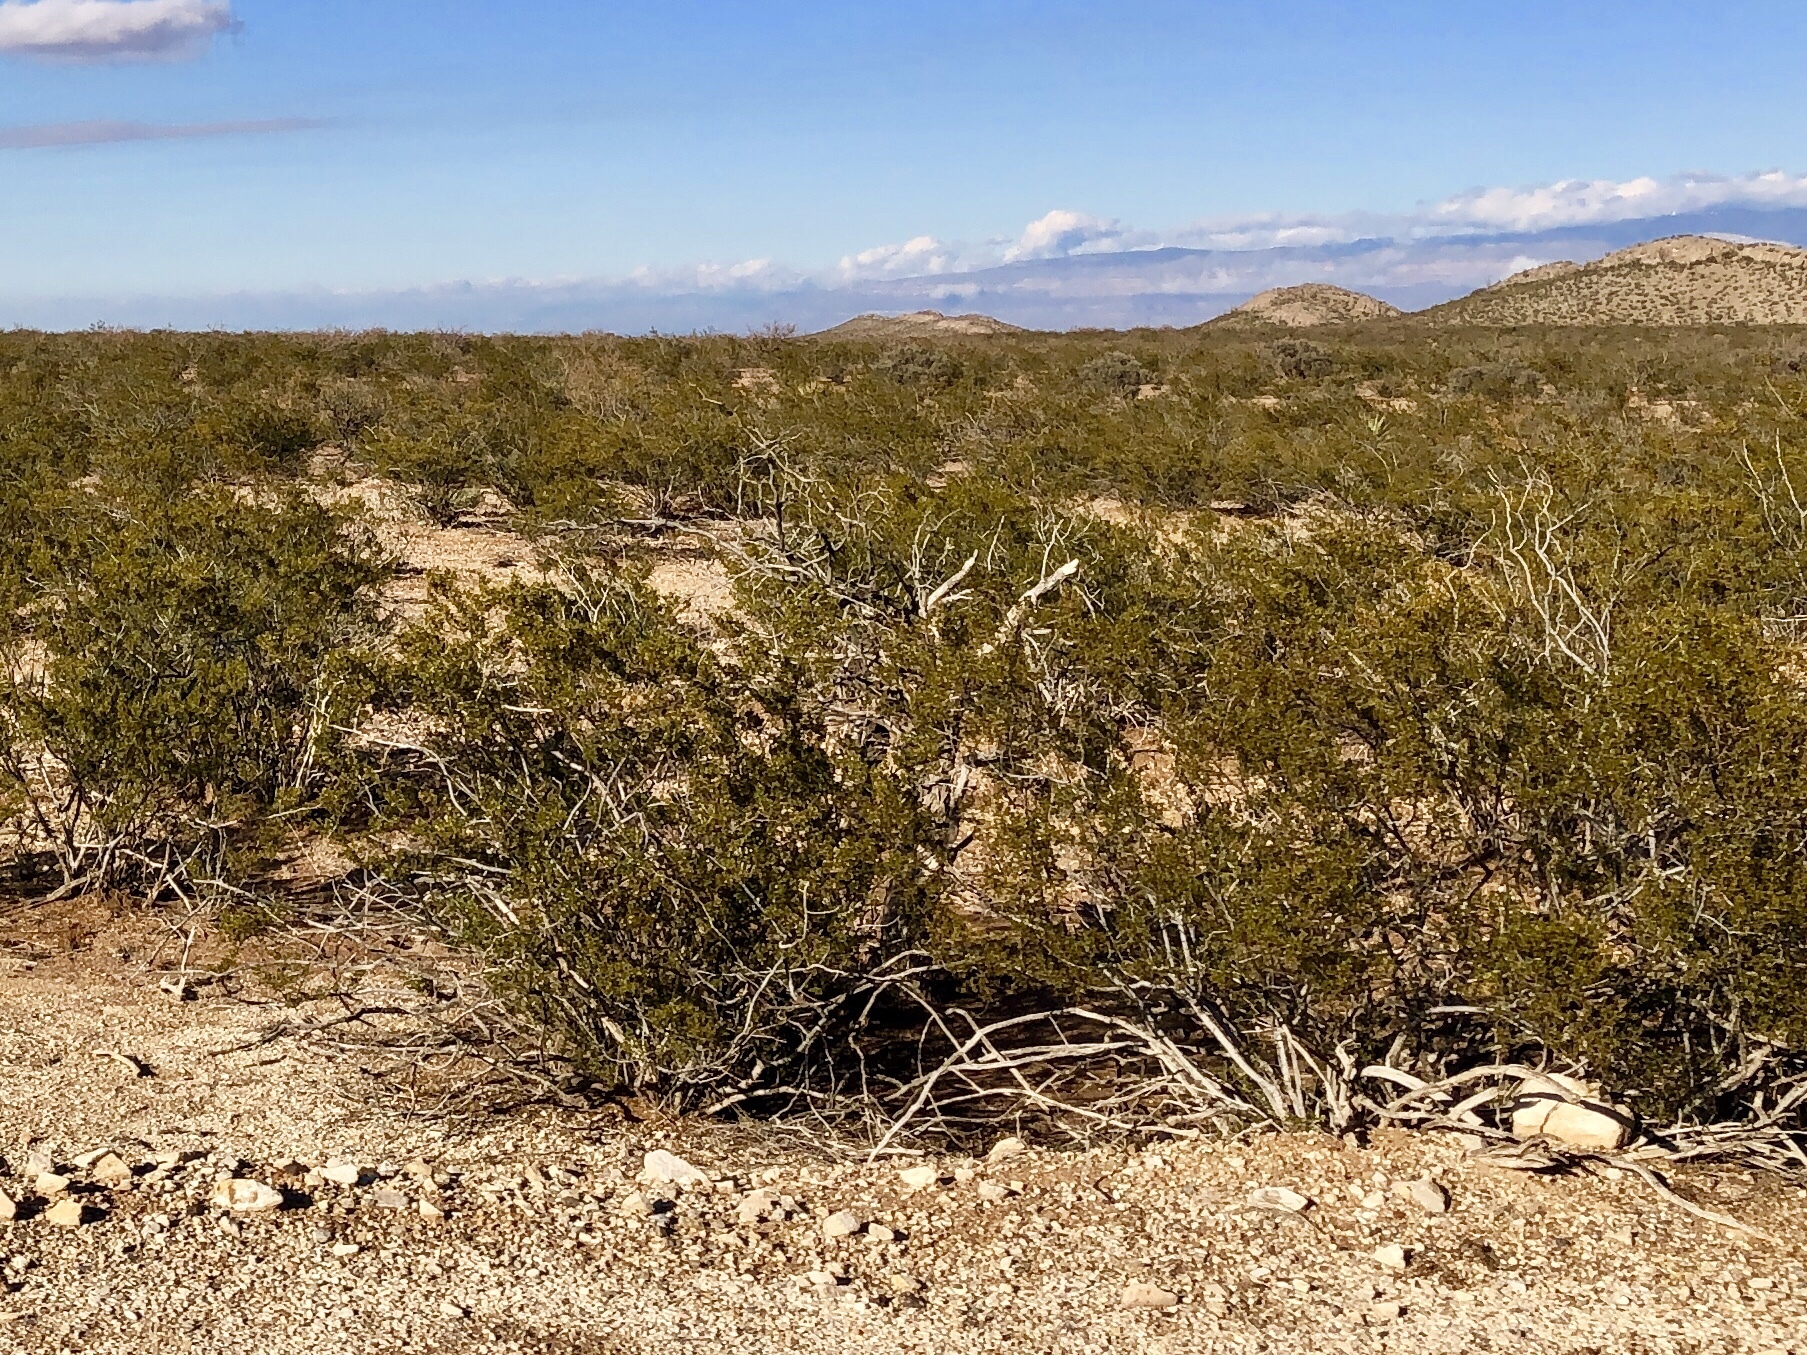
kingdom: Plantae
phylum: Tracheophyta
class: Magnoliopsida
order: Zygophyllales
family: Zygophyllaceae
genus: Larrea
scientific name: Larrea tridentata
